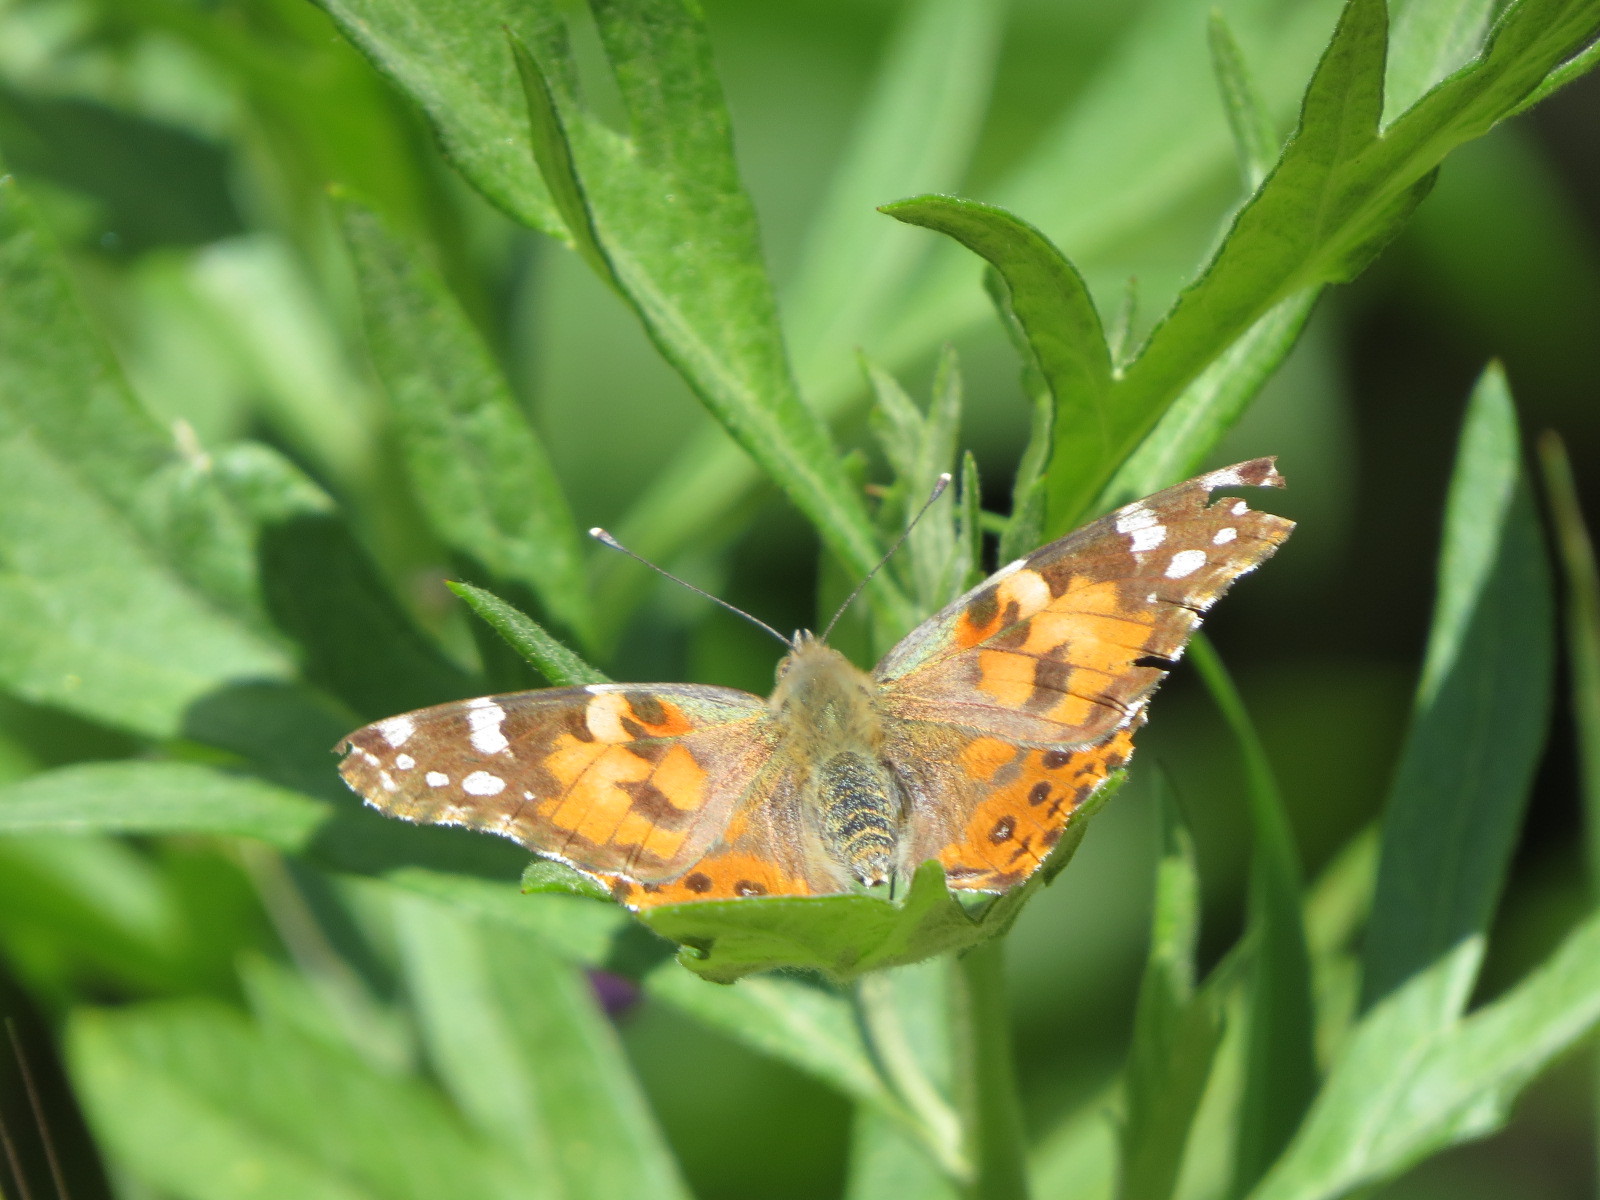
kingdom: Animalia
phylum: Arthropoda
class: Insecta
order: Lepidoptera
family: Nymphalidae
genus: Vanessa
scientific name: Vanessa cardui
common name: Painted lady
